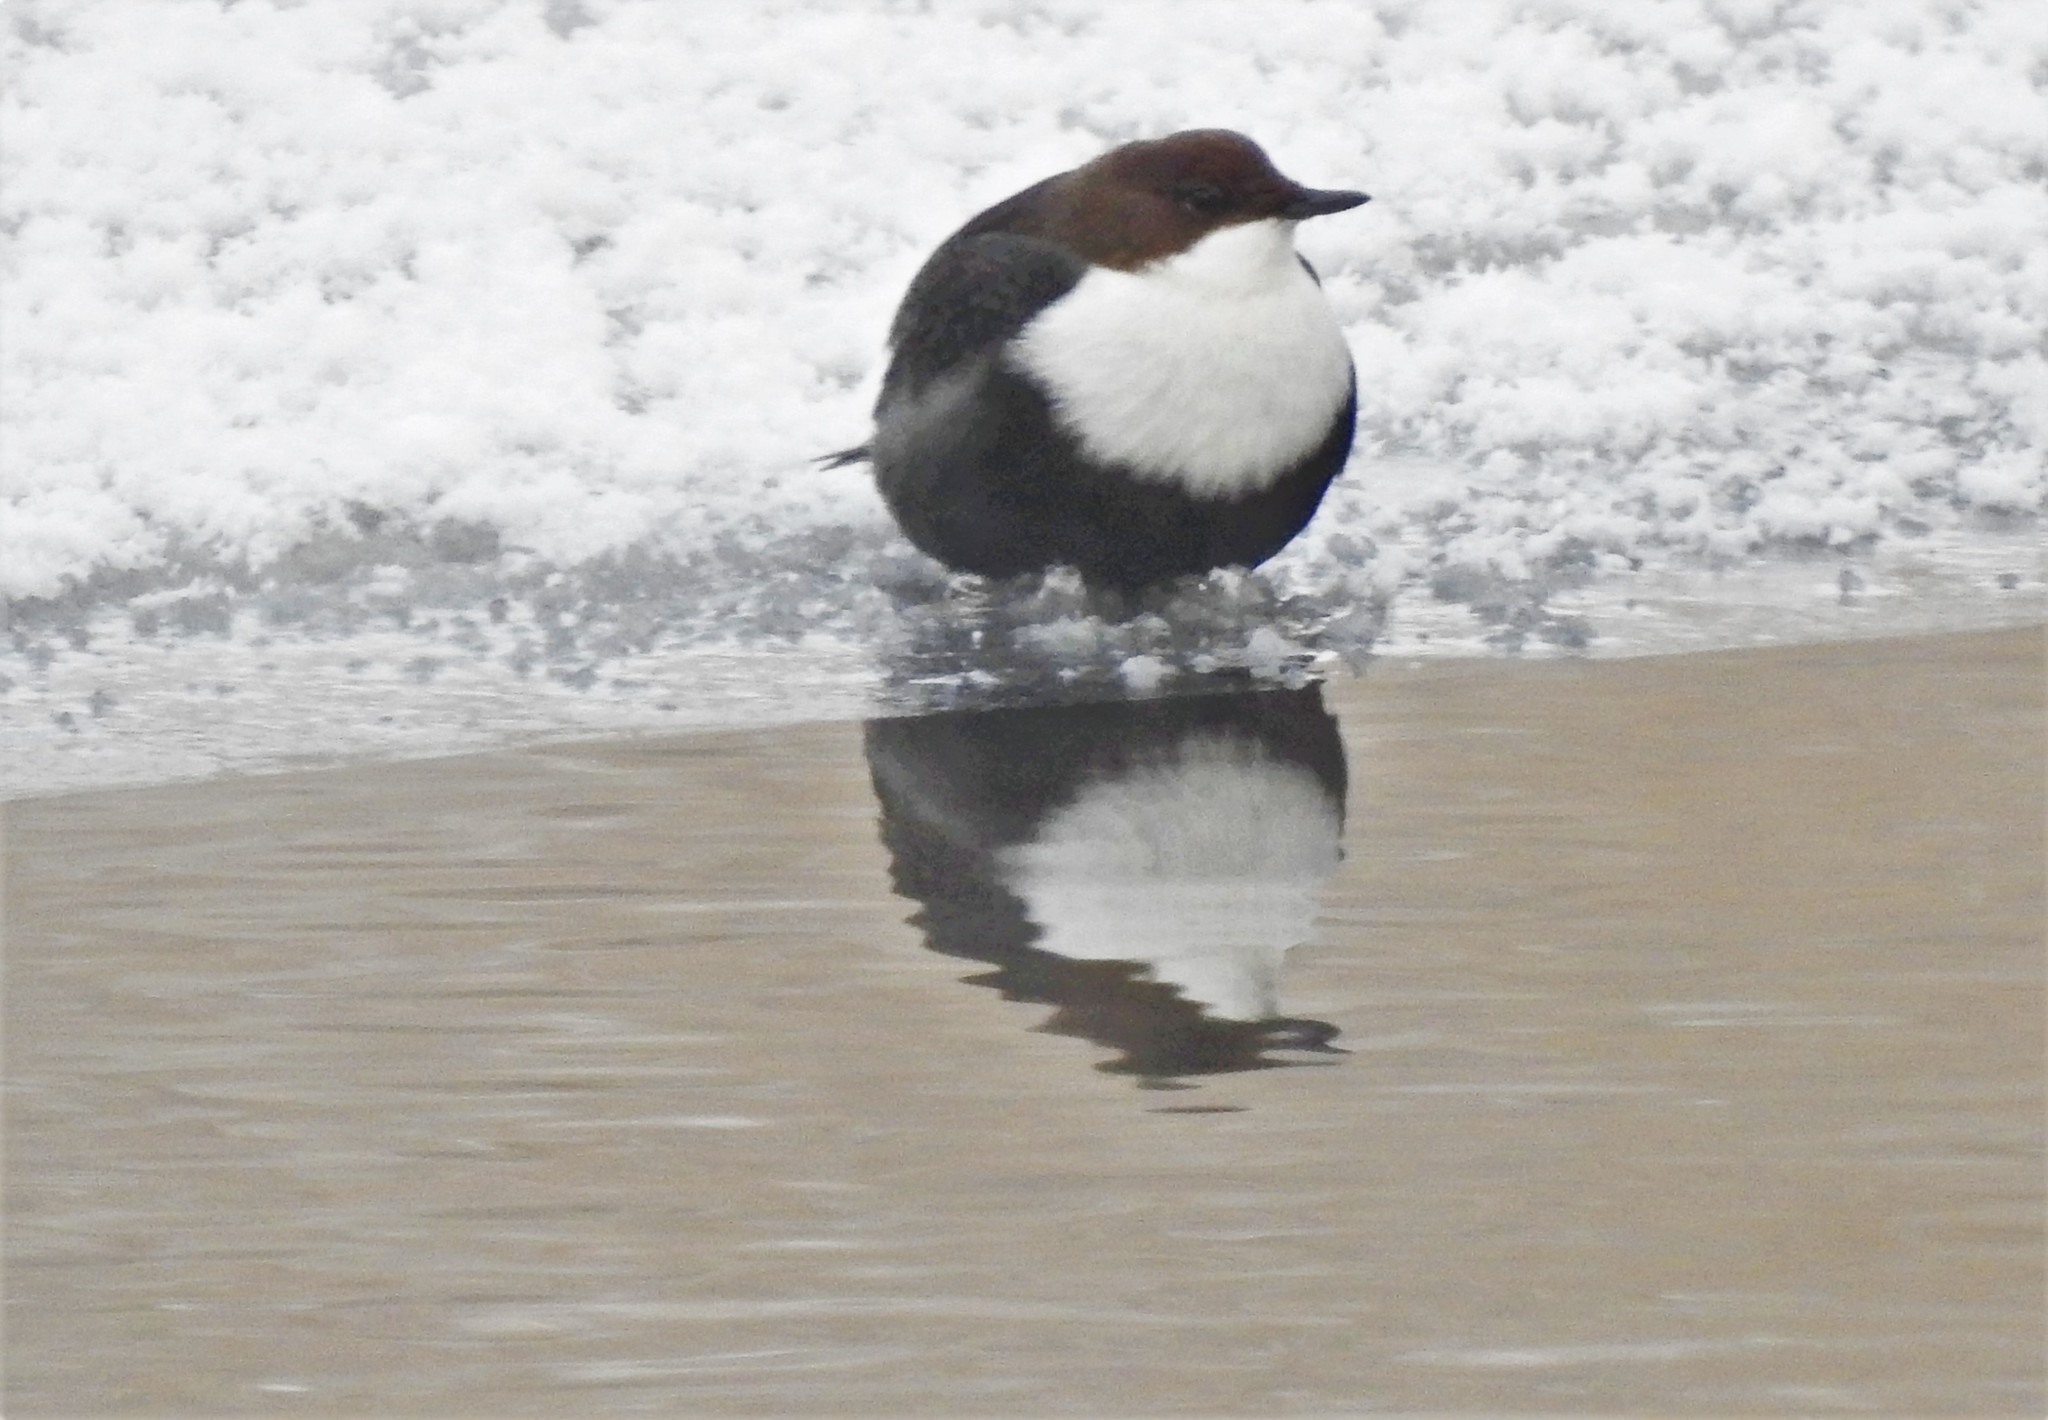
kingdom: Animalia
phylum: Chordata
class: Aves
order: Passeriformes
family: Cinclidae
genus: Cinclus
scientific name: Cinclus cinclus
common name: White-throated dipper
